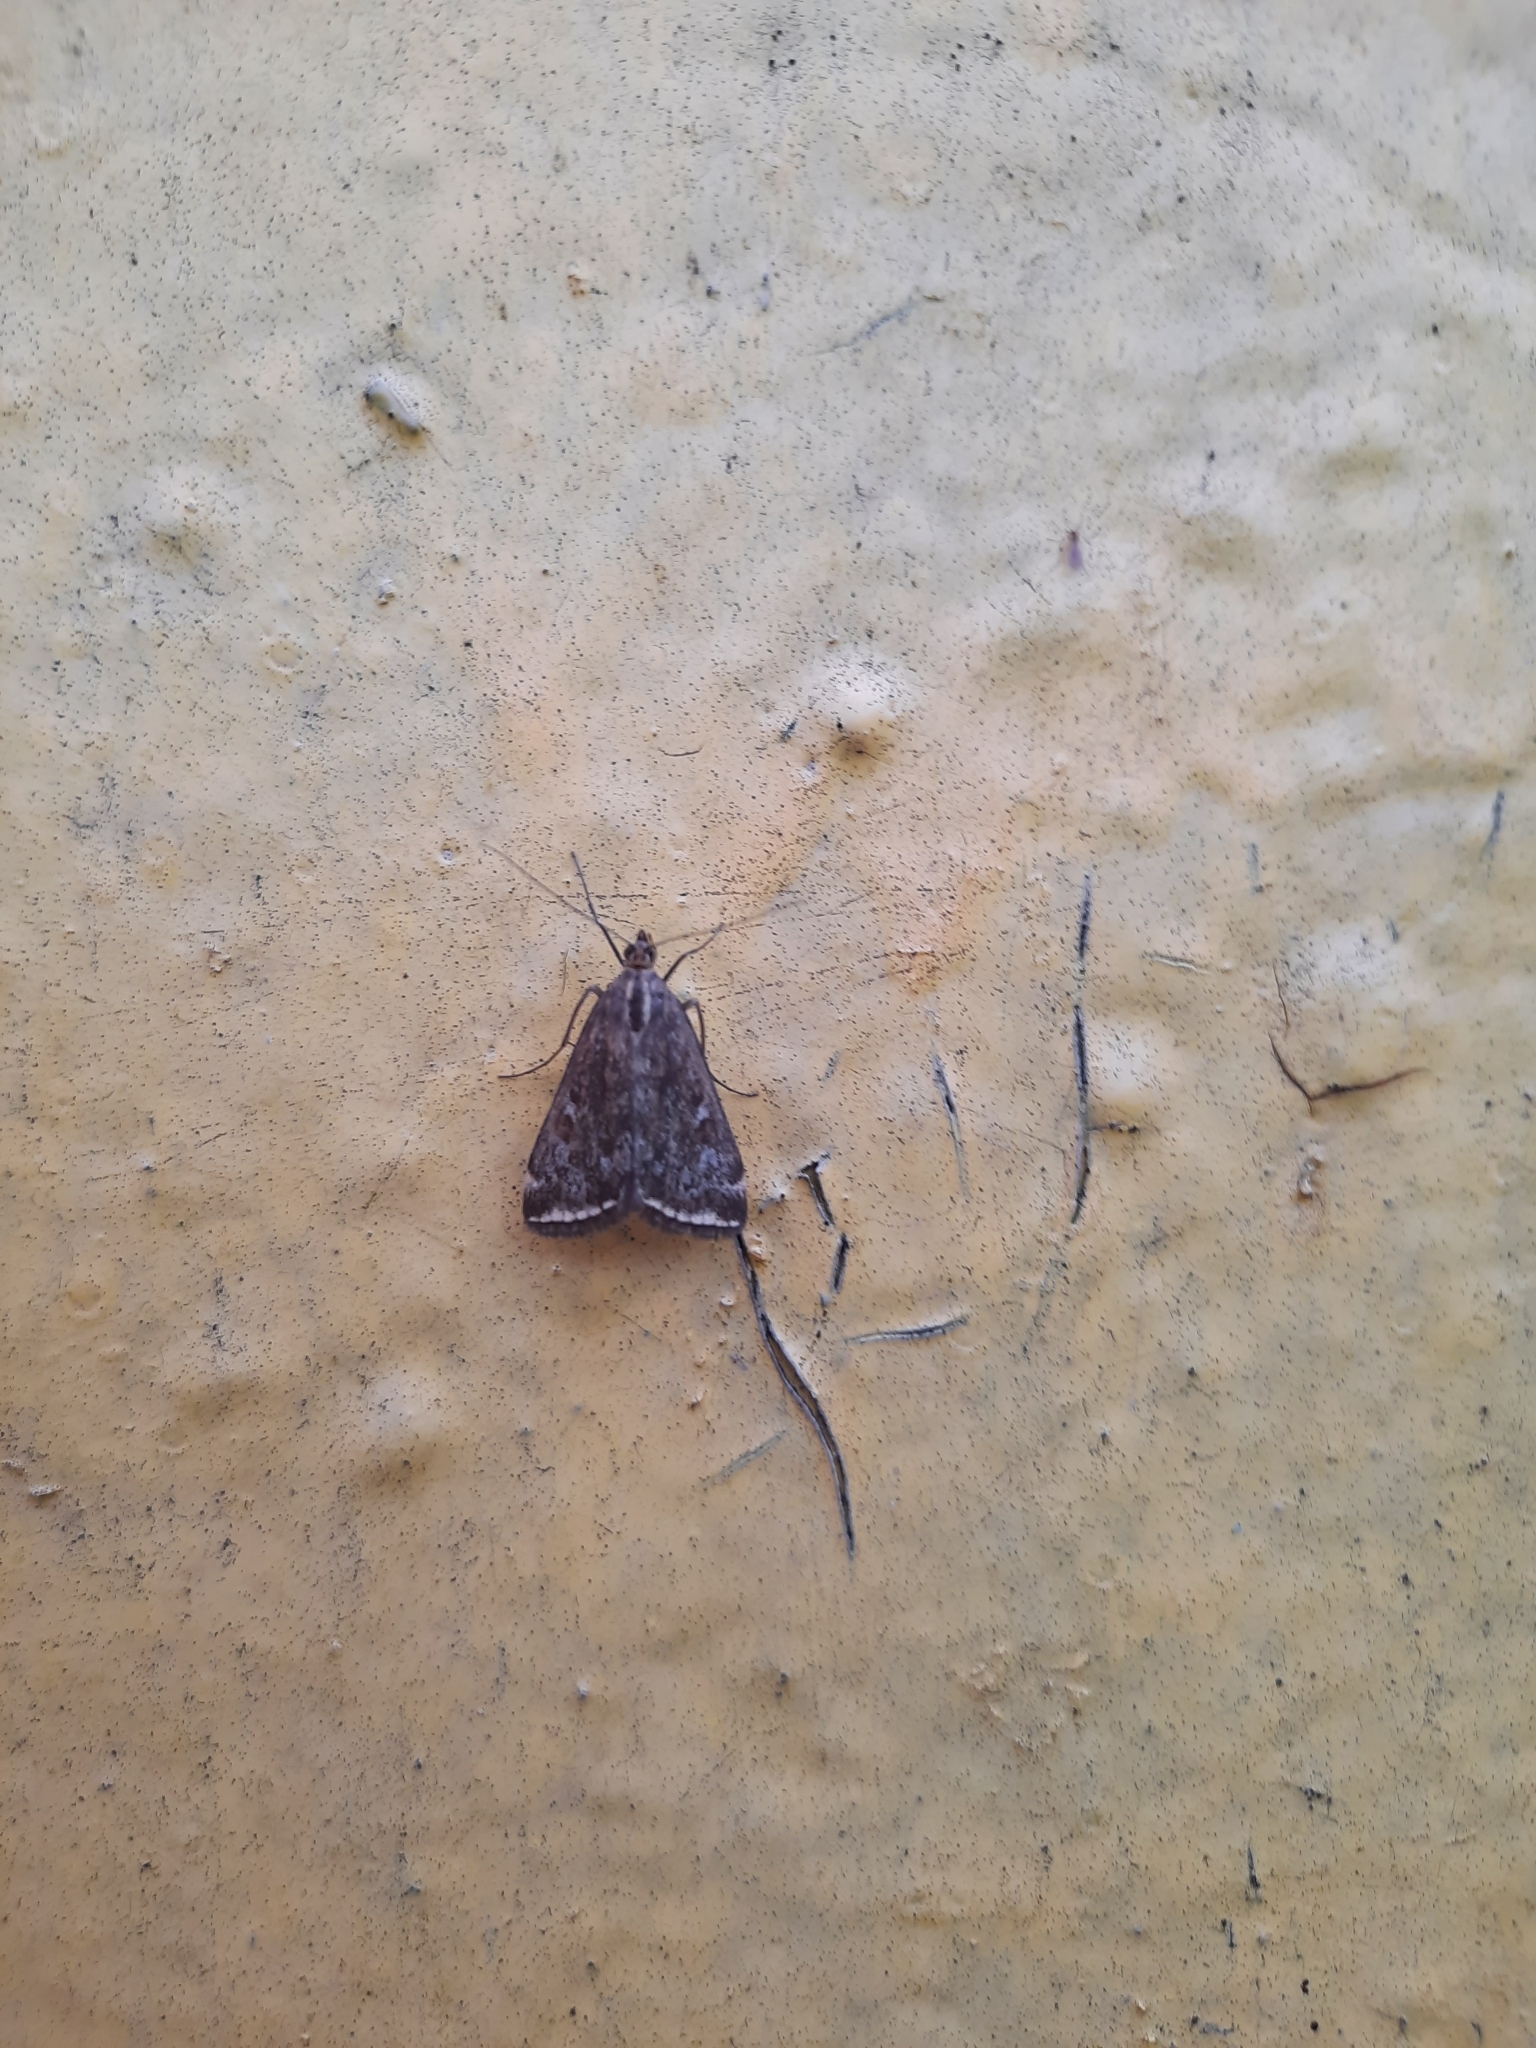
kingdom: Animalia
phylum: Arthropoda
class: Insecta
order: Lepidoptera
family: Crambidae
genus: Loxostege
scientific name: Loxostege sticticalis
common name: Crambid moth
